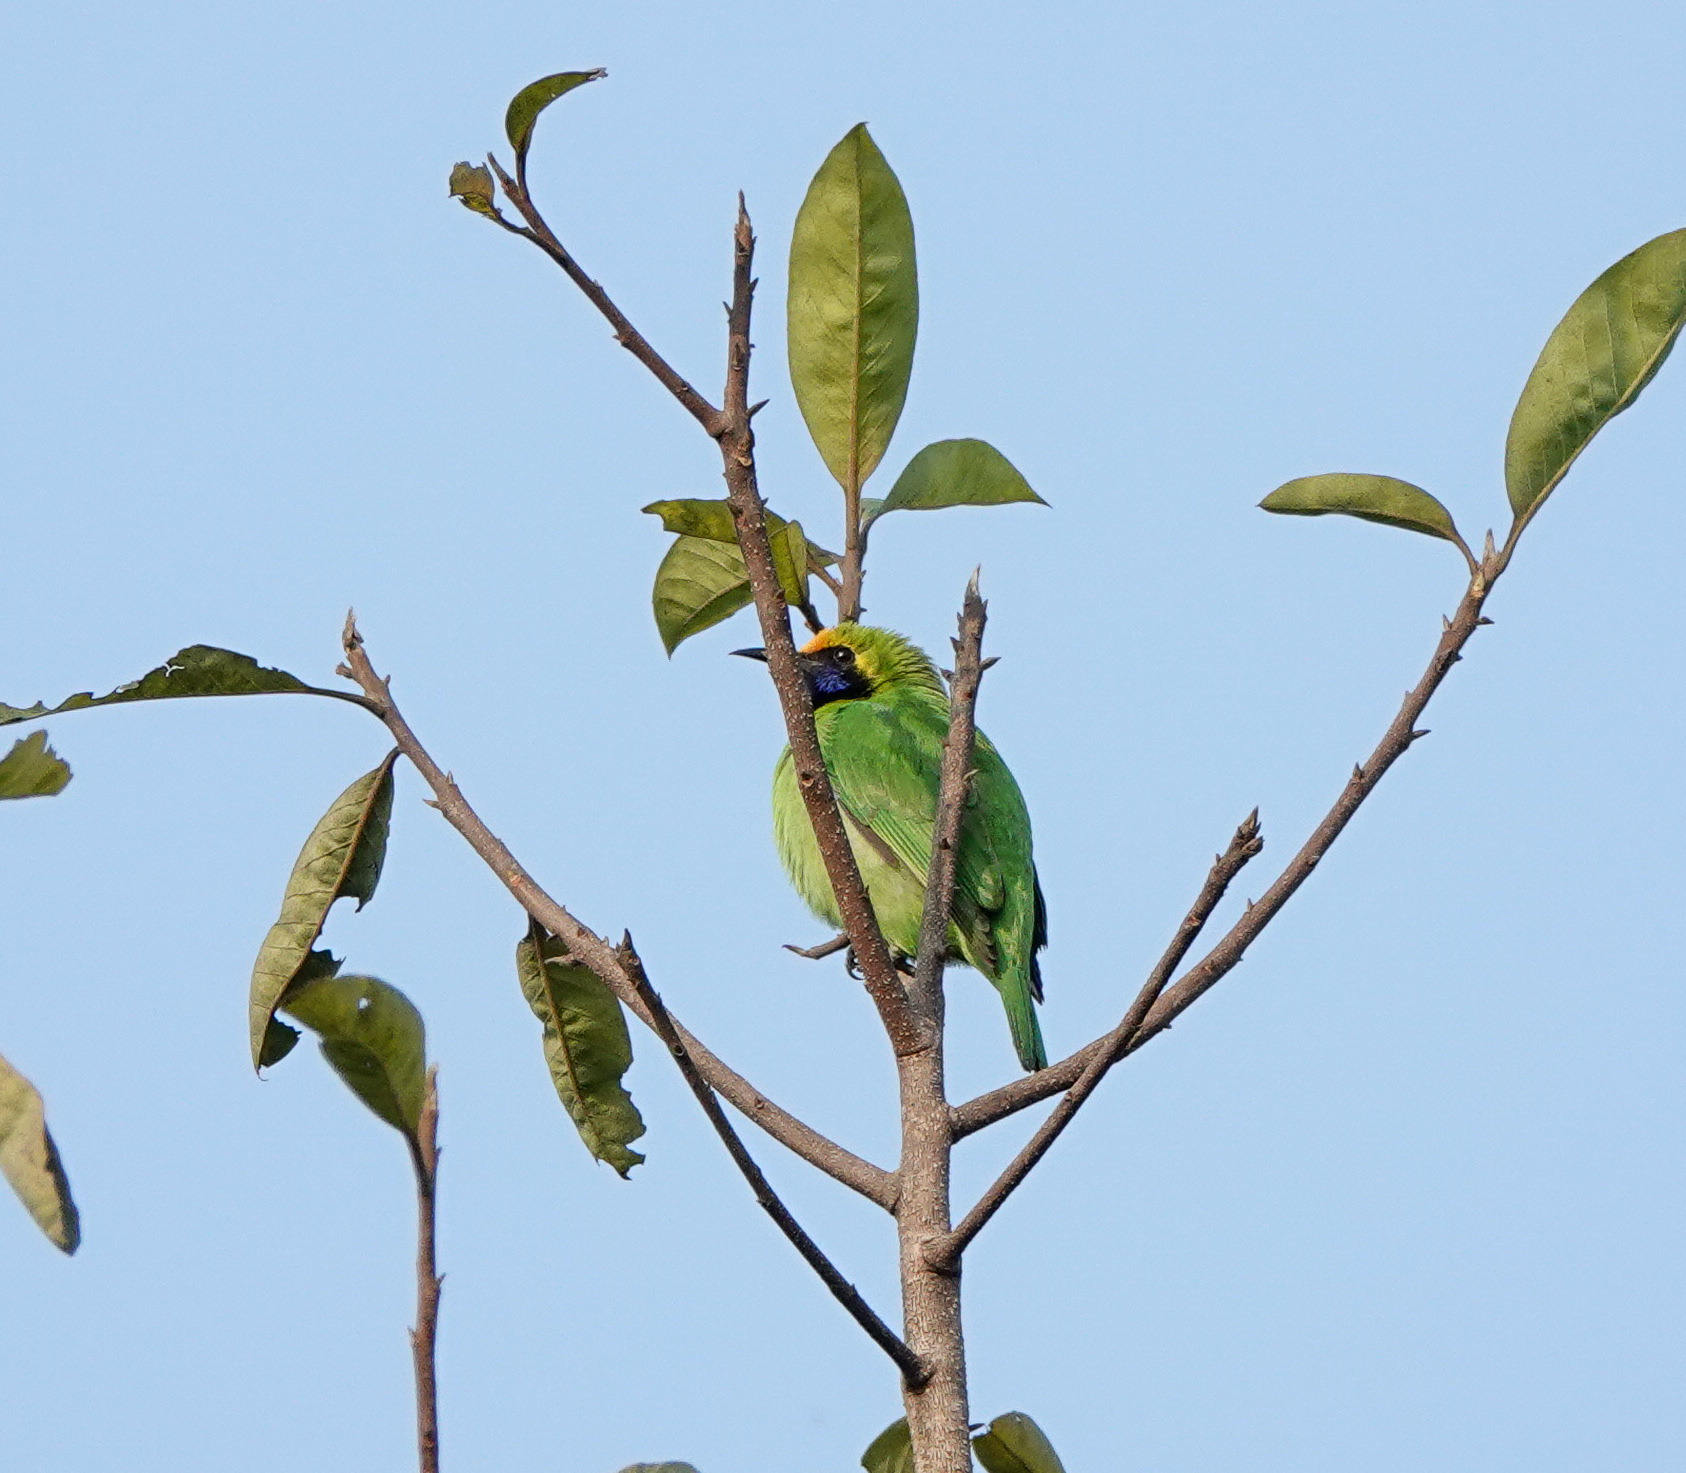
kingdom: Animalia
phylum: Chordata
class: Aves
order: Passeriformes
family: Chloropseidae
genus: Chloropsis
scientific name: Chloropsis aurifrons
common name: Golden-fronted leafbird
